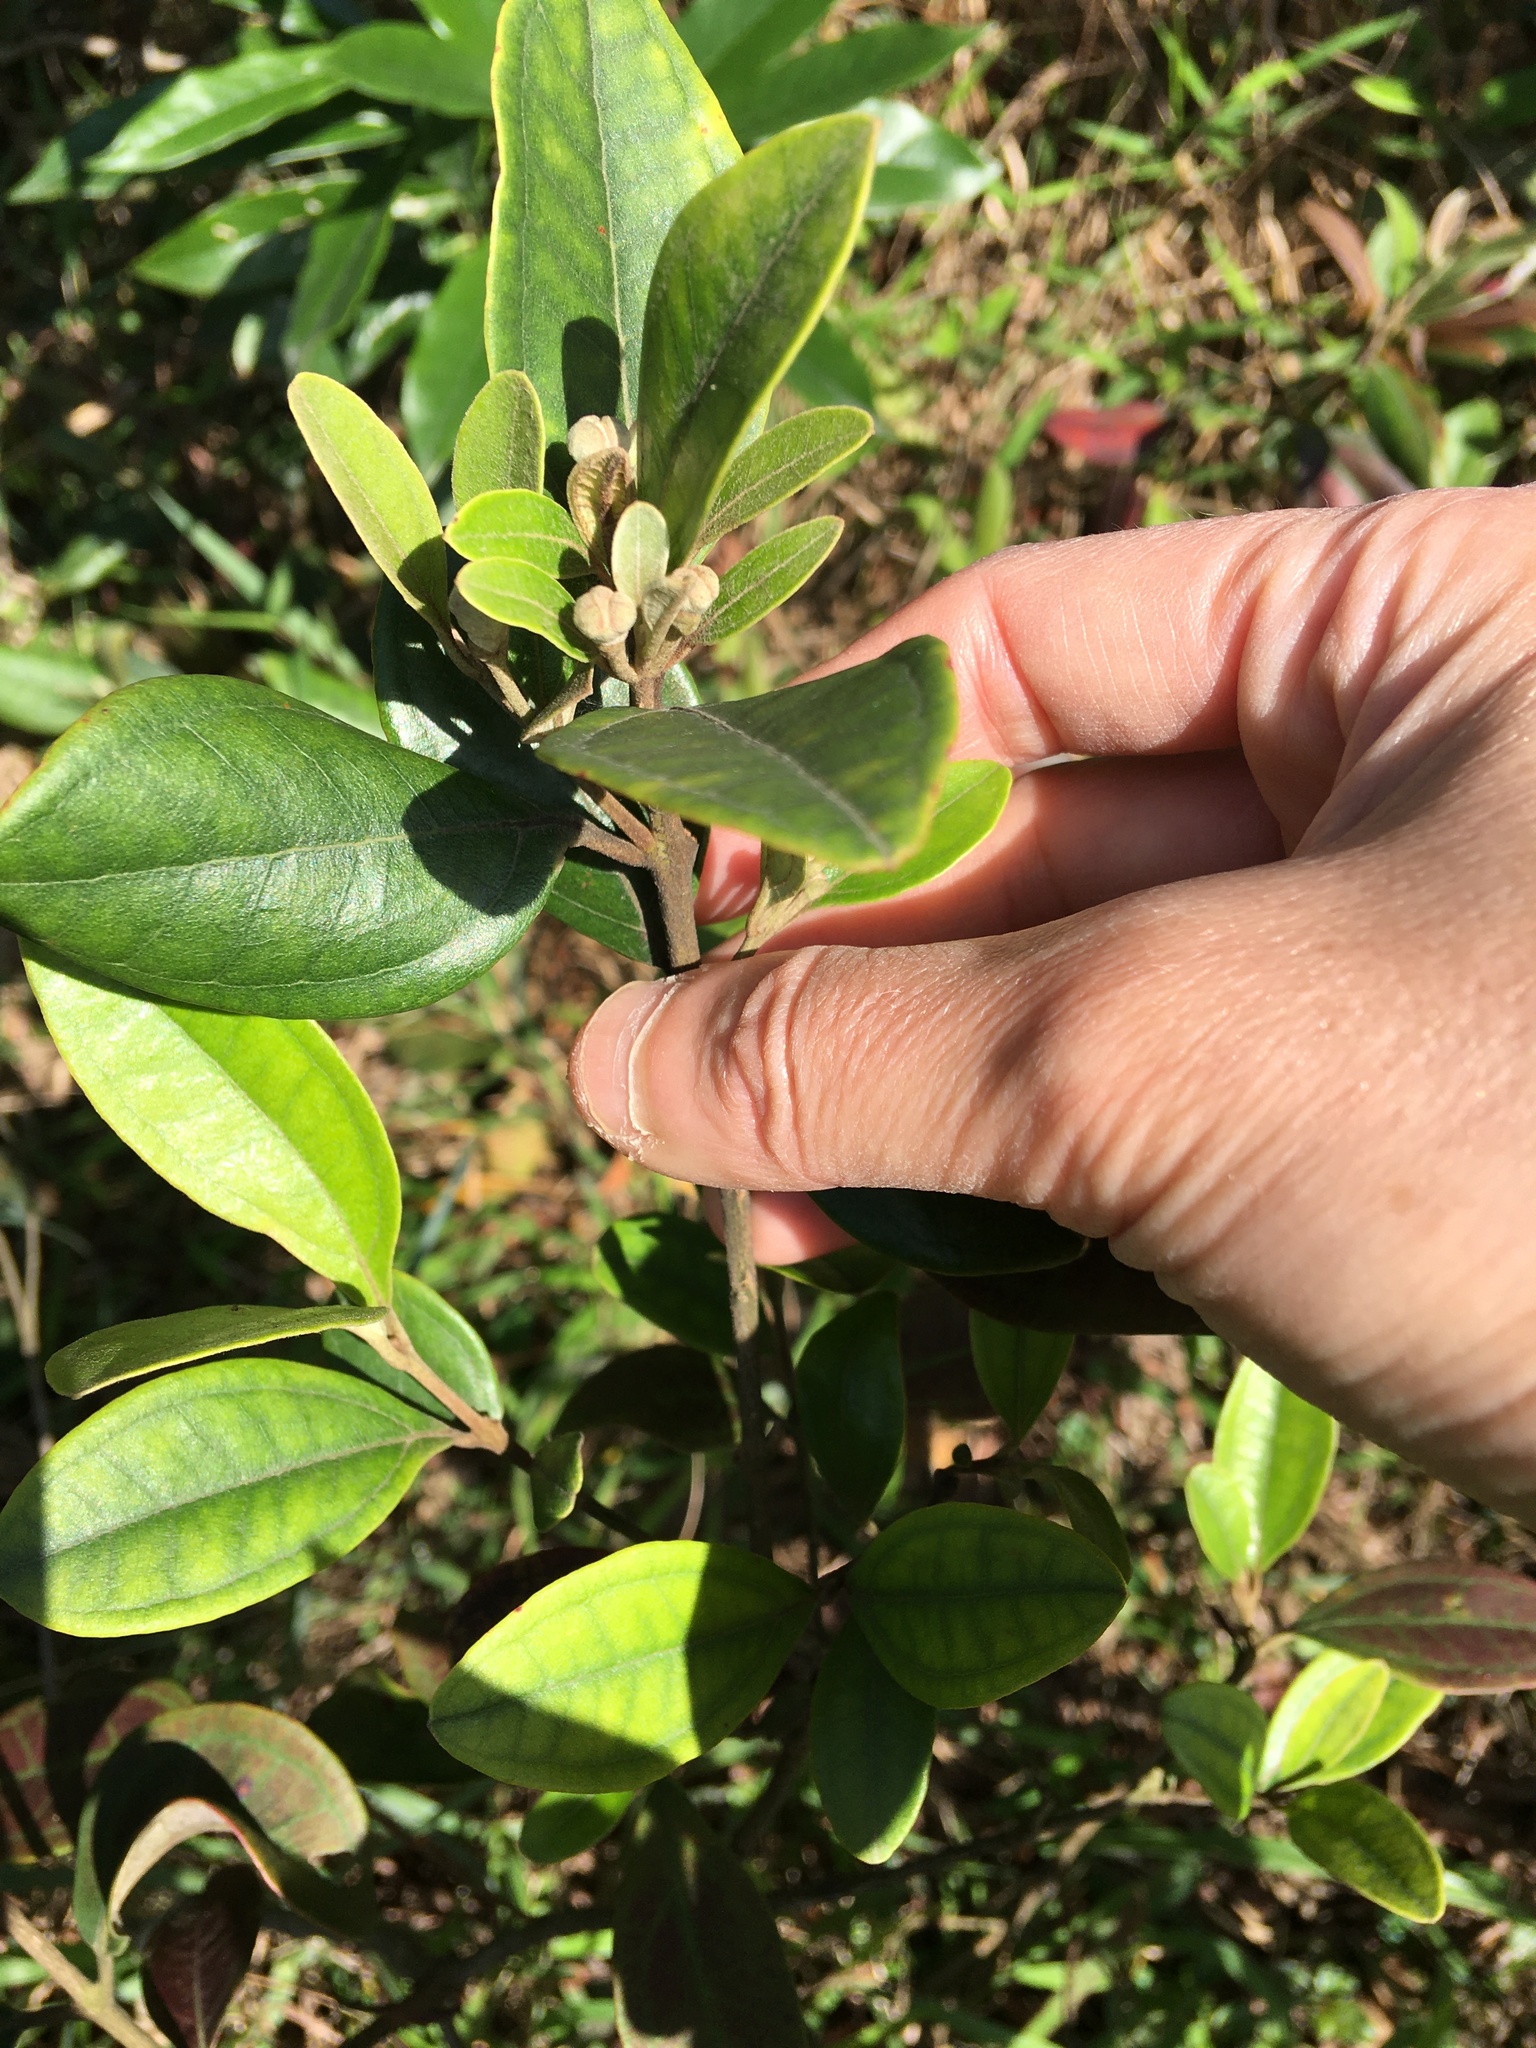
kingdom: Plantae
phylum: Tracheophyta
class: Magnoliopsida
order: Myrtales
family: Myrtaceae
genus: Rhodomyrtus
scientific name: Rhodomyrtus tomentosa
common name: Rose myrtle
